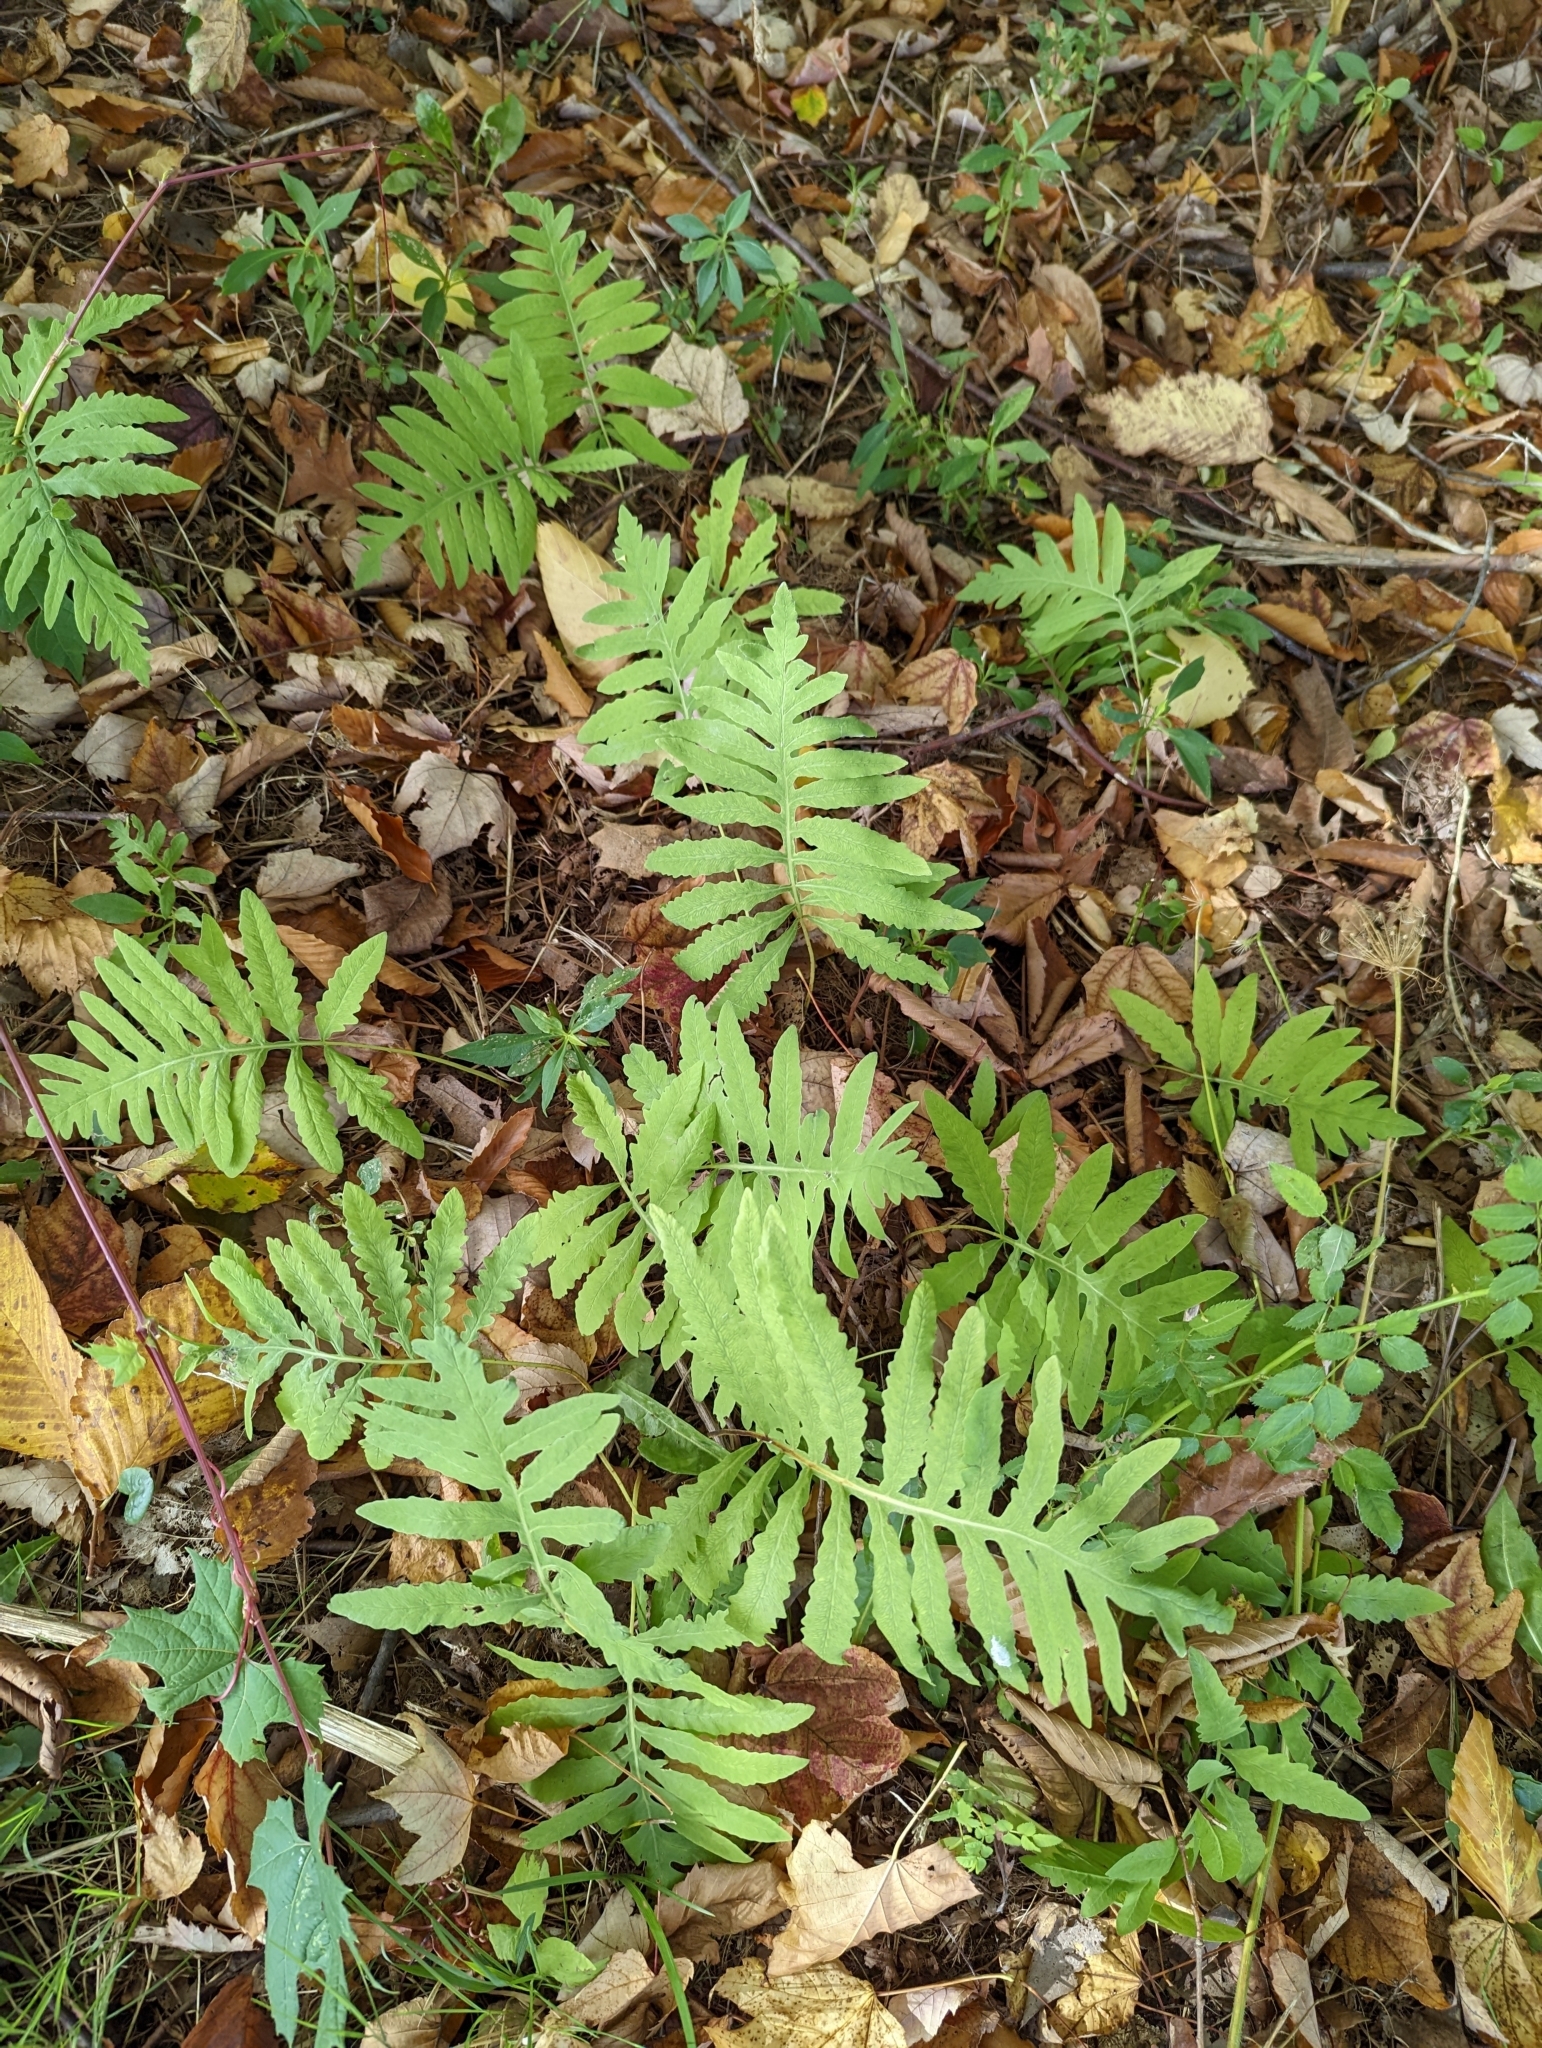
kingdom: Plantae
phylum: Tracheophyta
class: Polypodiopsida
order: Polypodiales
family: Onocleaceae
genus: Onoclea
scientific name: Onoclea sensibilis
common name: Sensitive fern
